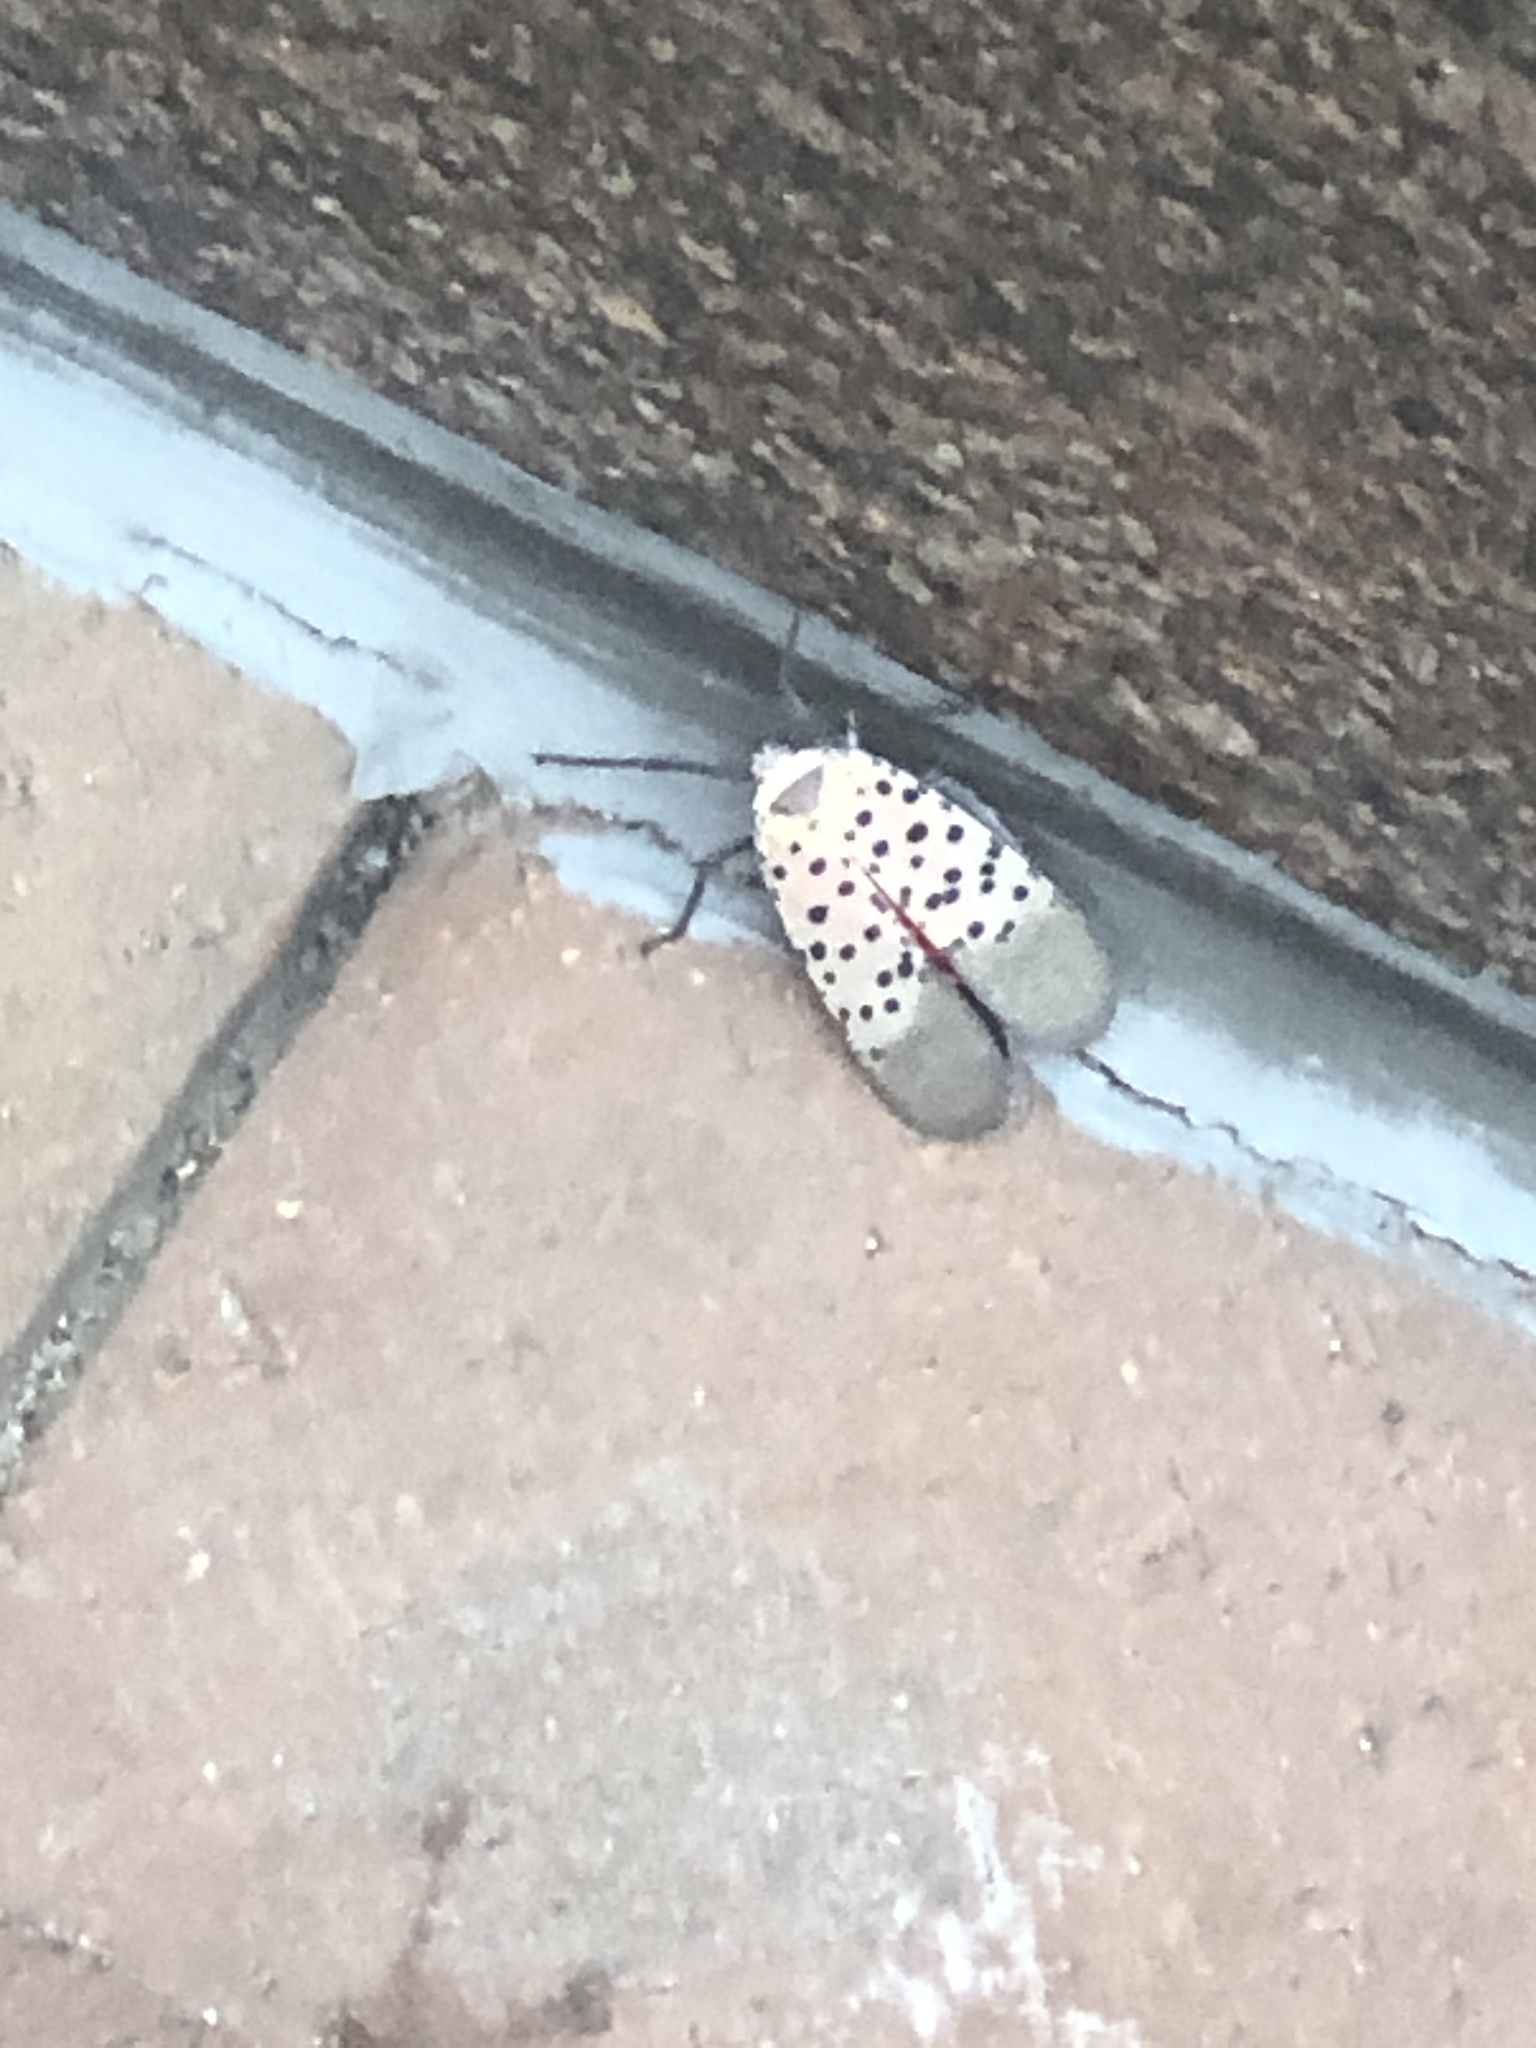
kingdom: Animalia
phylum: Arthropoda
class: Insecta
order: Hemiptera
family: Fulgoridae
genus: Lycorma
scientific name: Lycorma delicatula
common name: Spotted lanternfly
